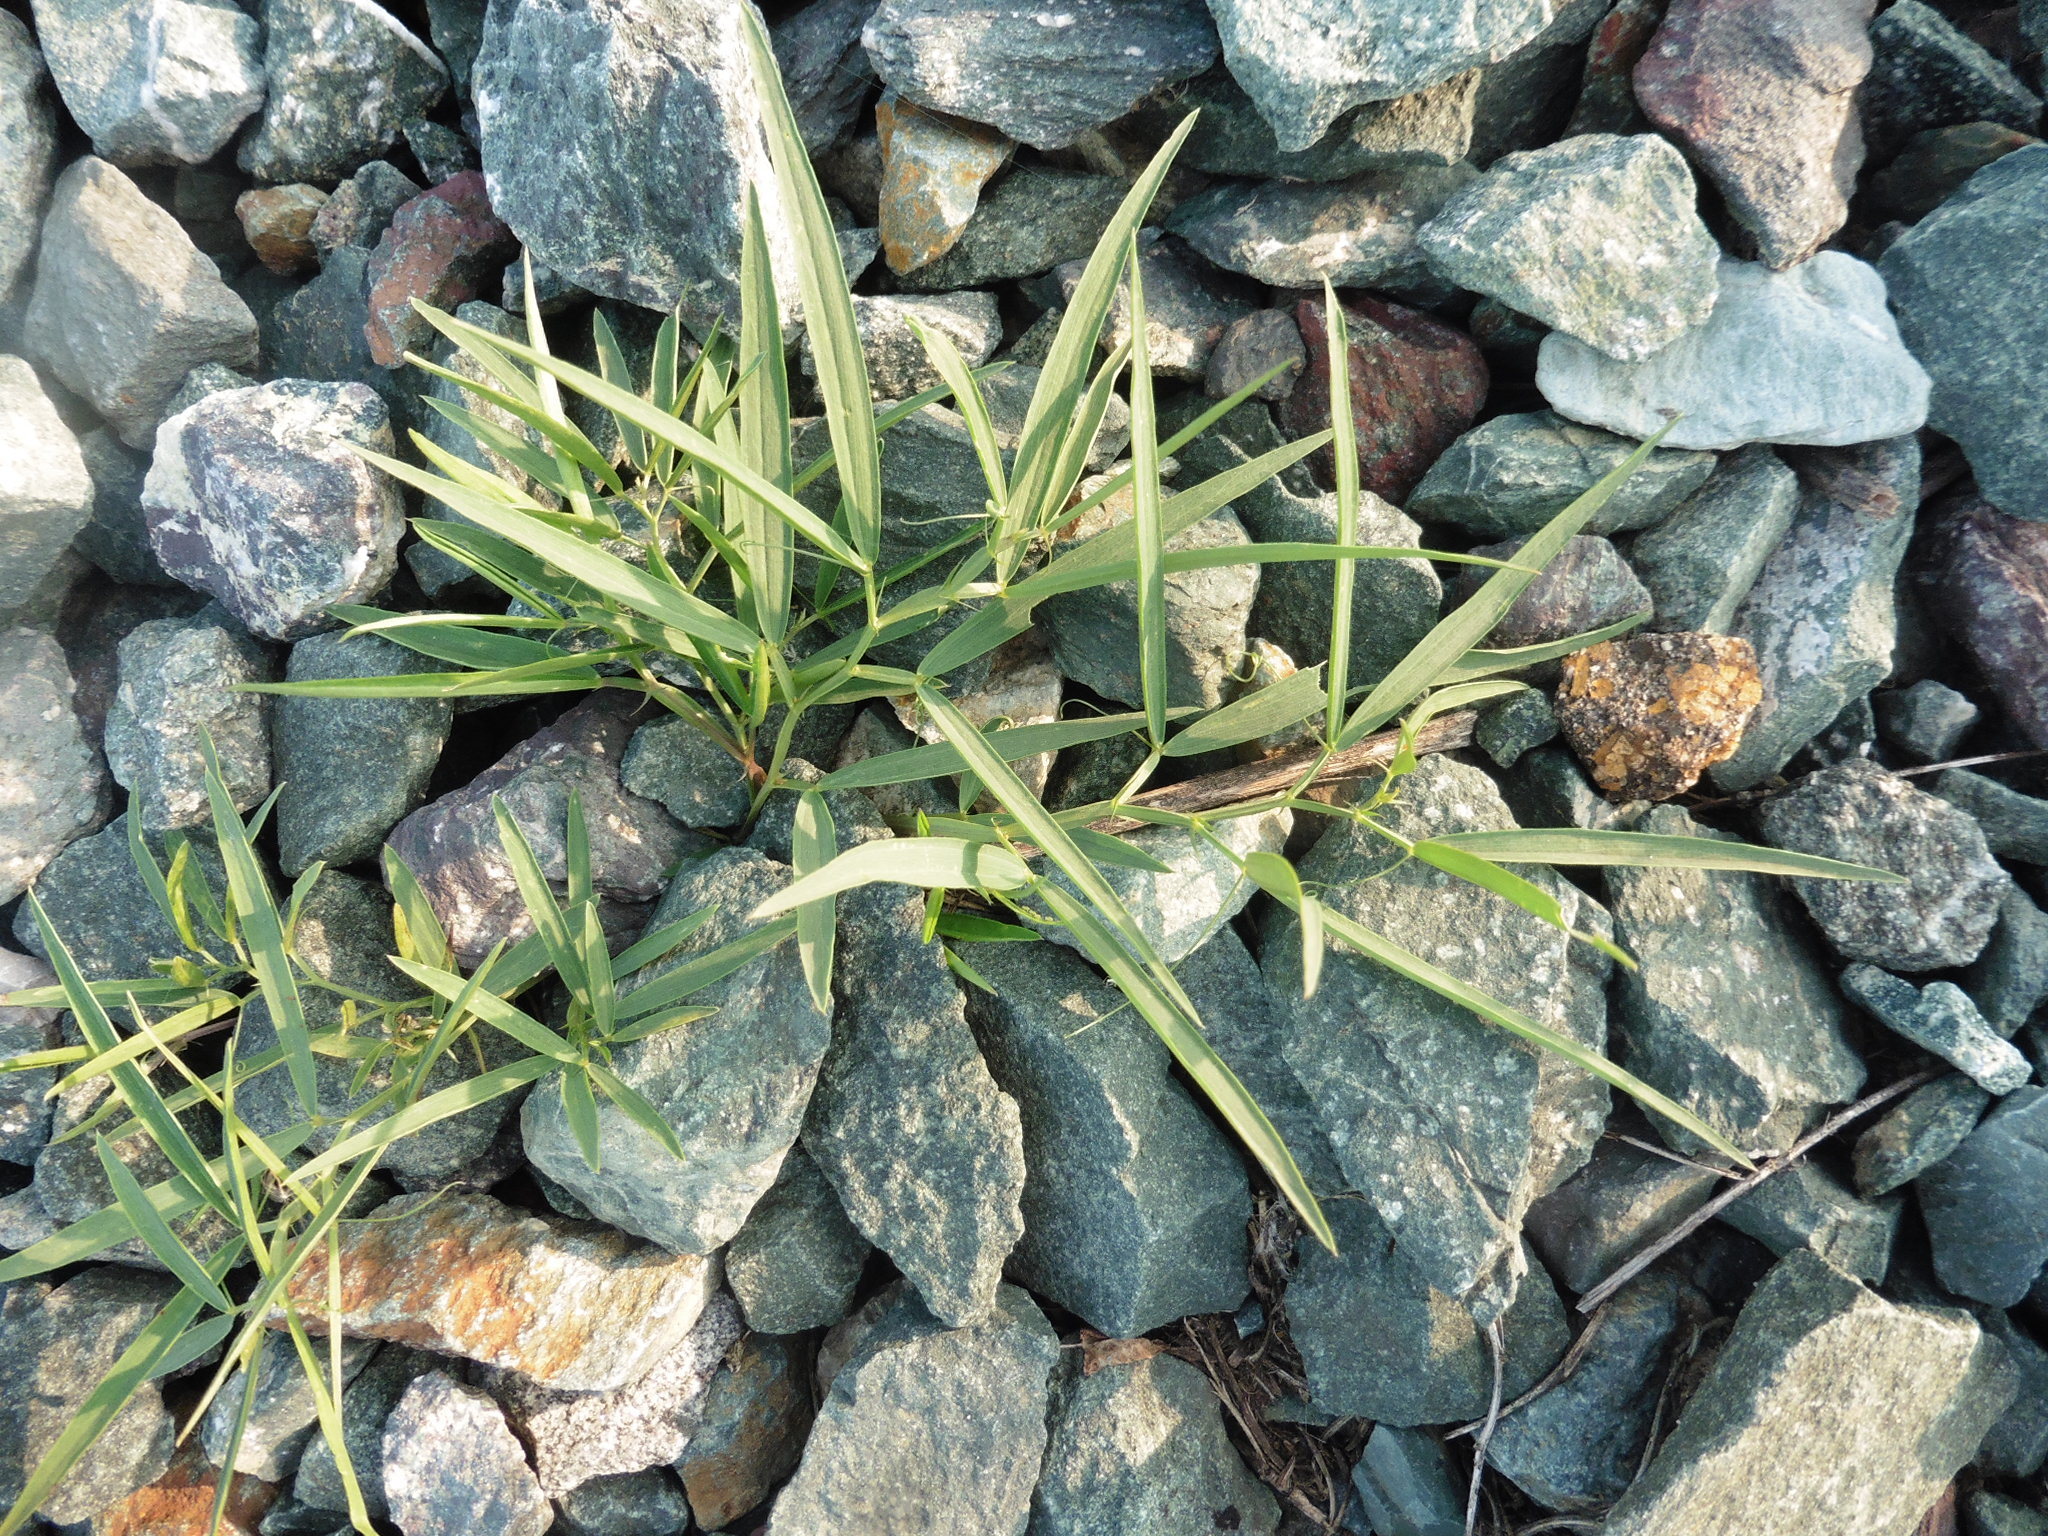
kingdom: Plantae
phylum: Tracheophyta
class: Magnoliopsida
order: Fabales
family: Fabaceae
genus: Lathyrus
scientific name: Lathyrus sylvestris
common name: Flat pea
